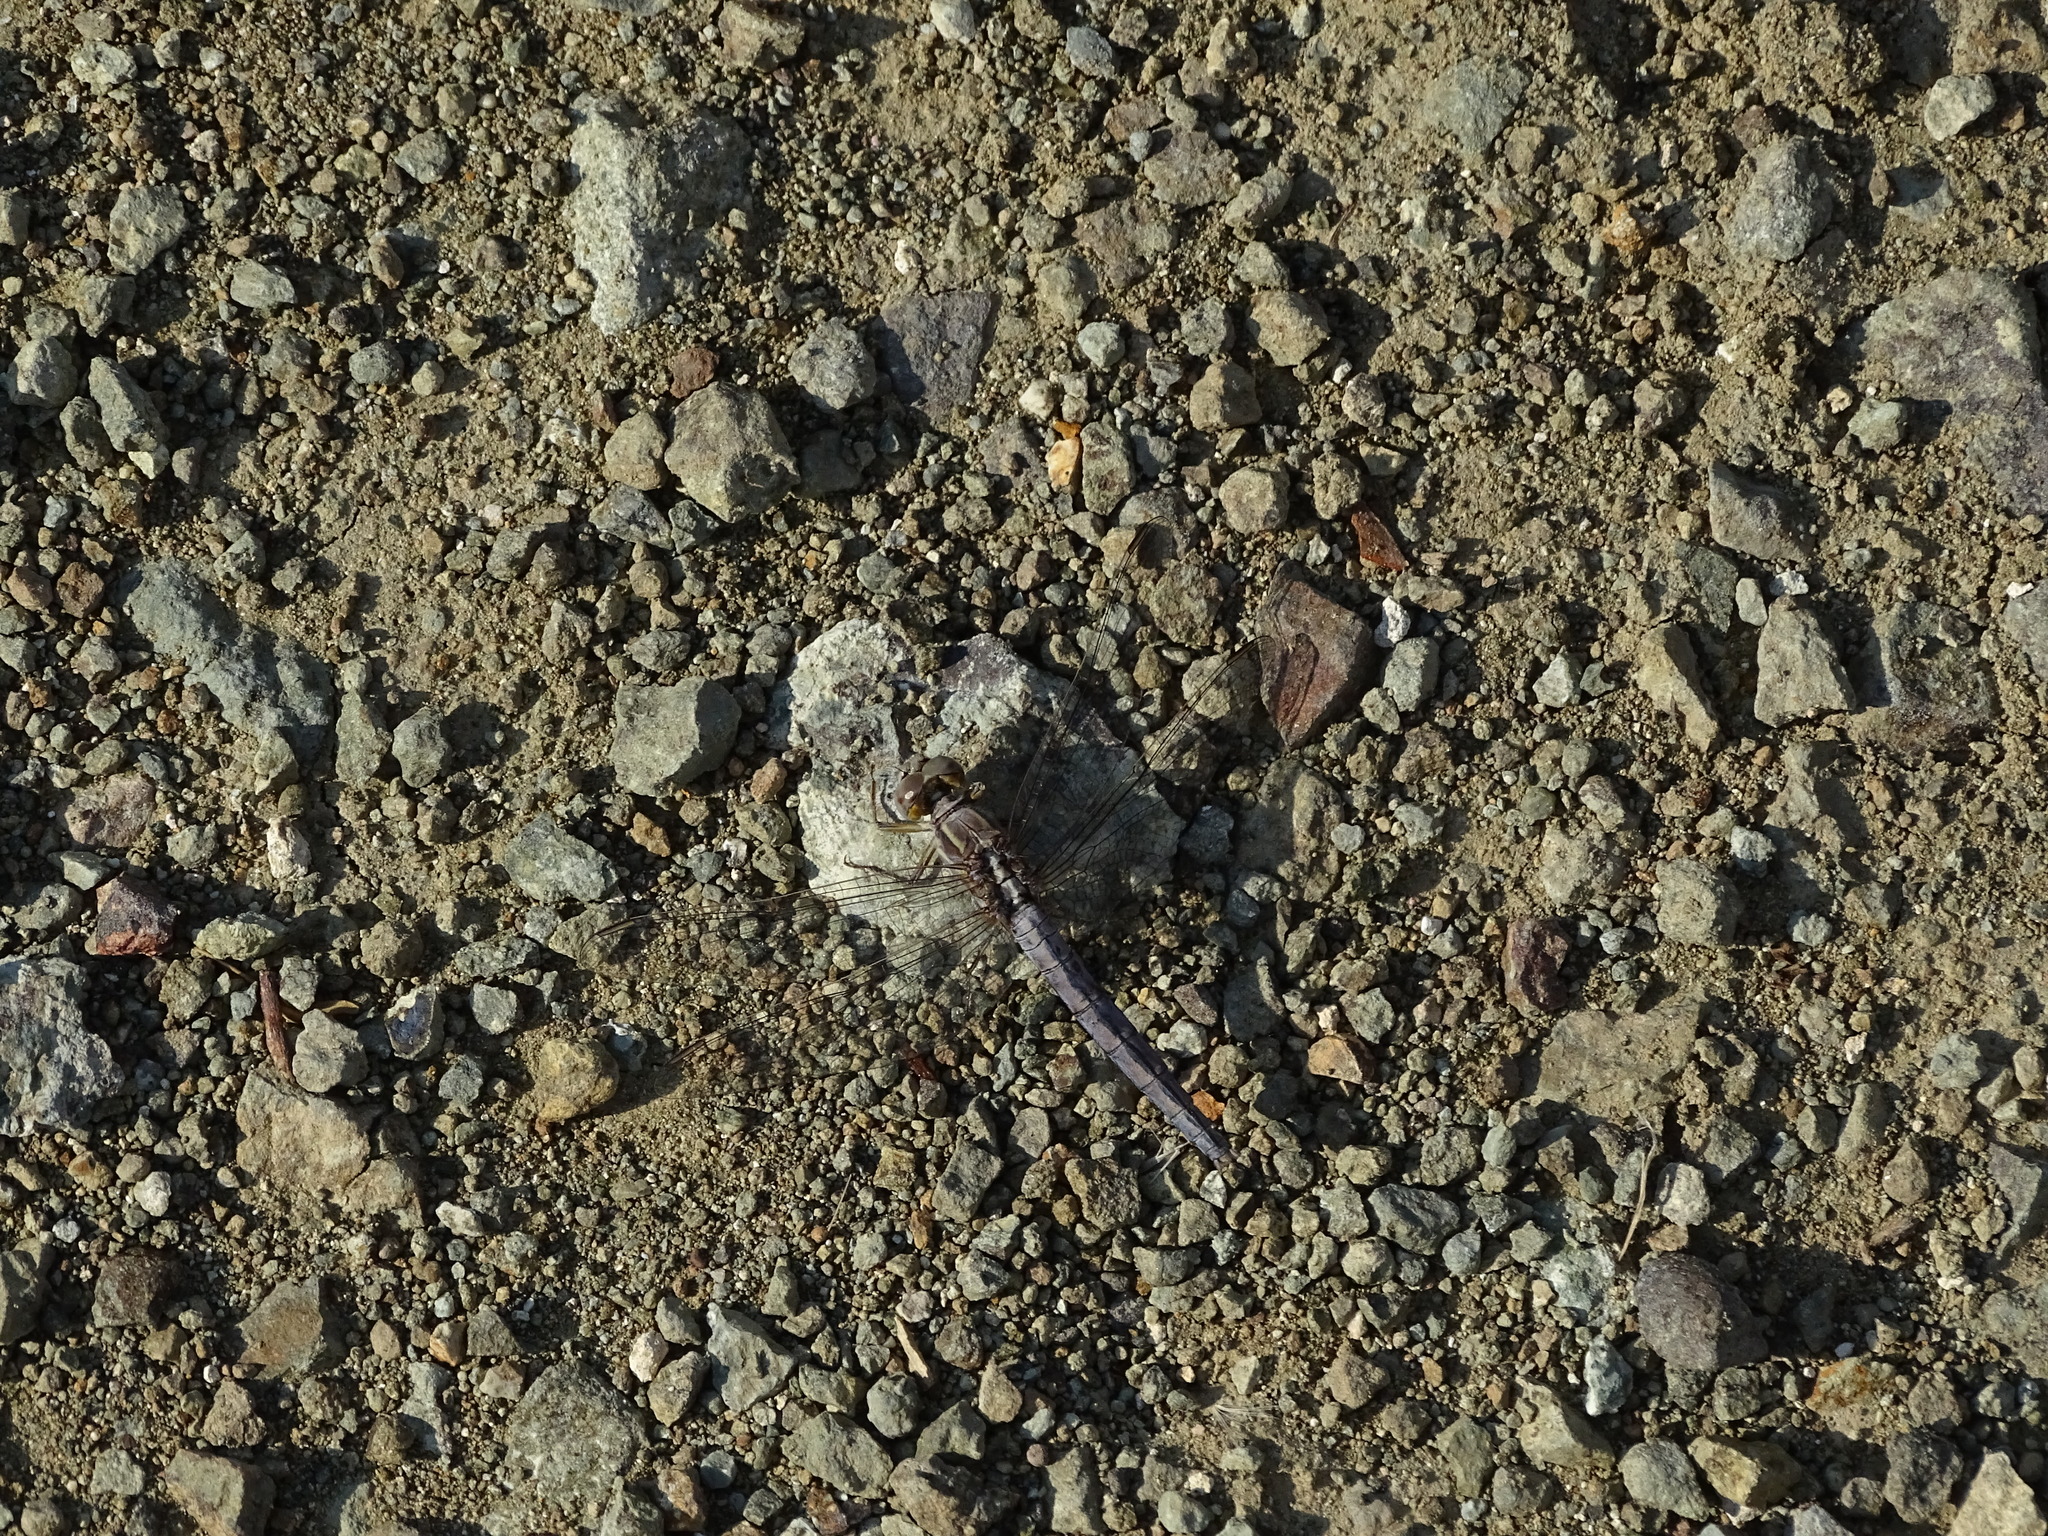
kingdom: Animalia
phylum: Arthropoda
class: Insecta
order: Odonata
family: Libellulidae
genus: Orthetrum
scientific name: Orthetrum taeniolatum
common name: Small skimmer
